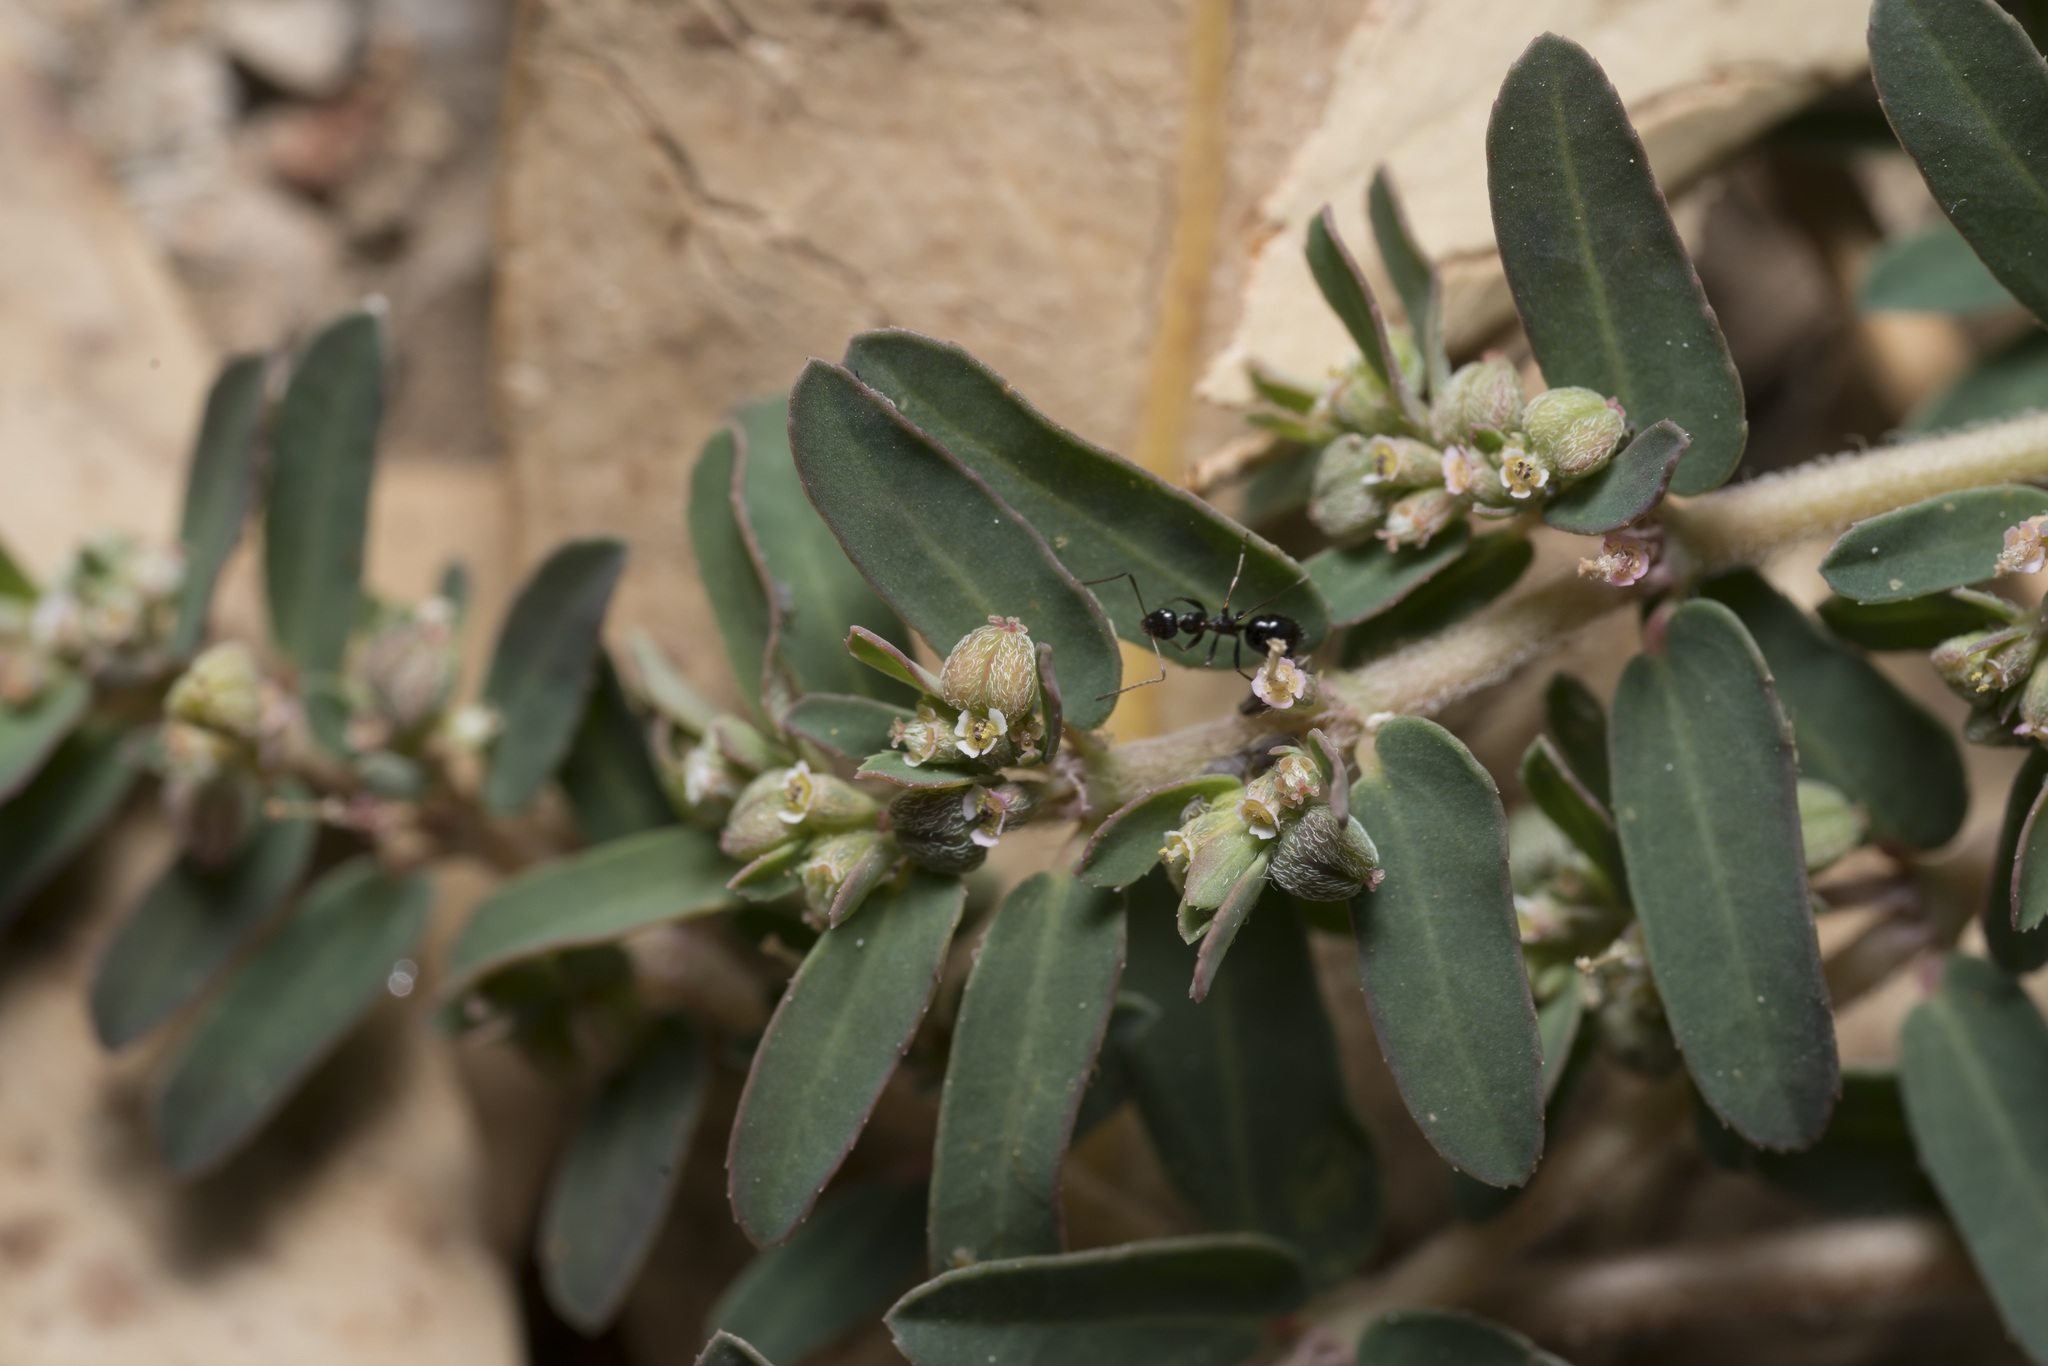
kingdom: Plantae
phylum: Tracheophyta
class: Magnoliopsida
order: Malpighiales
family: Euphorbiaceae
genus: Euphorbia
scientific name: Euphorbia maculata
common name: Spotted spurge
